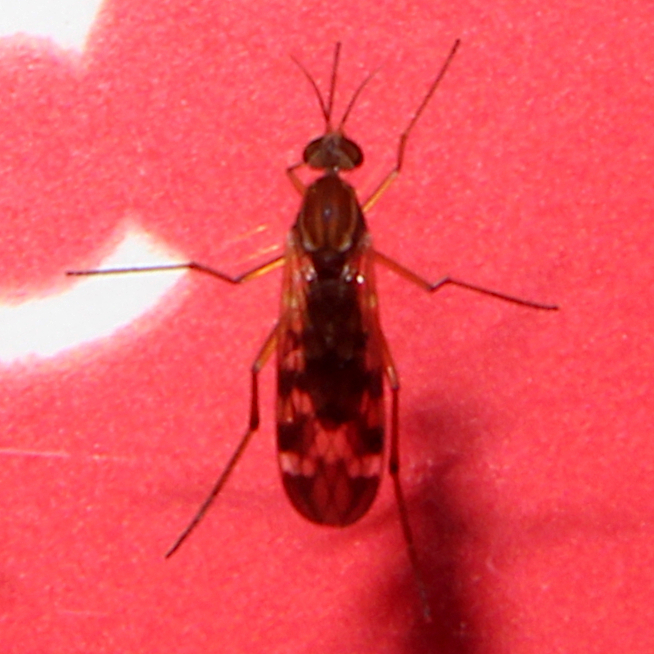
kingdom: Animalia
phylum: Arthropoda
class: Insecta
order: Diptera
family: Anisopodidae
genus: Sylvicola
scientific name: Sylvicola notatus
